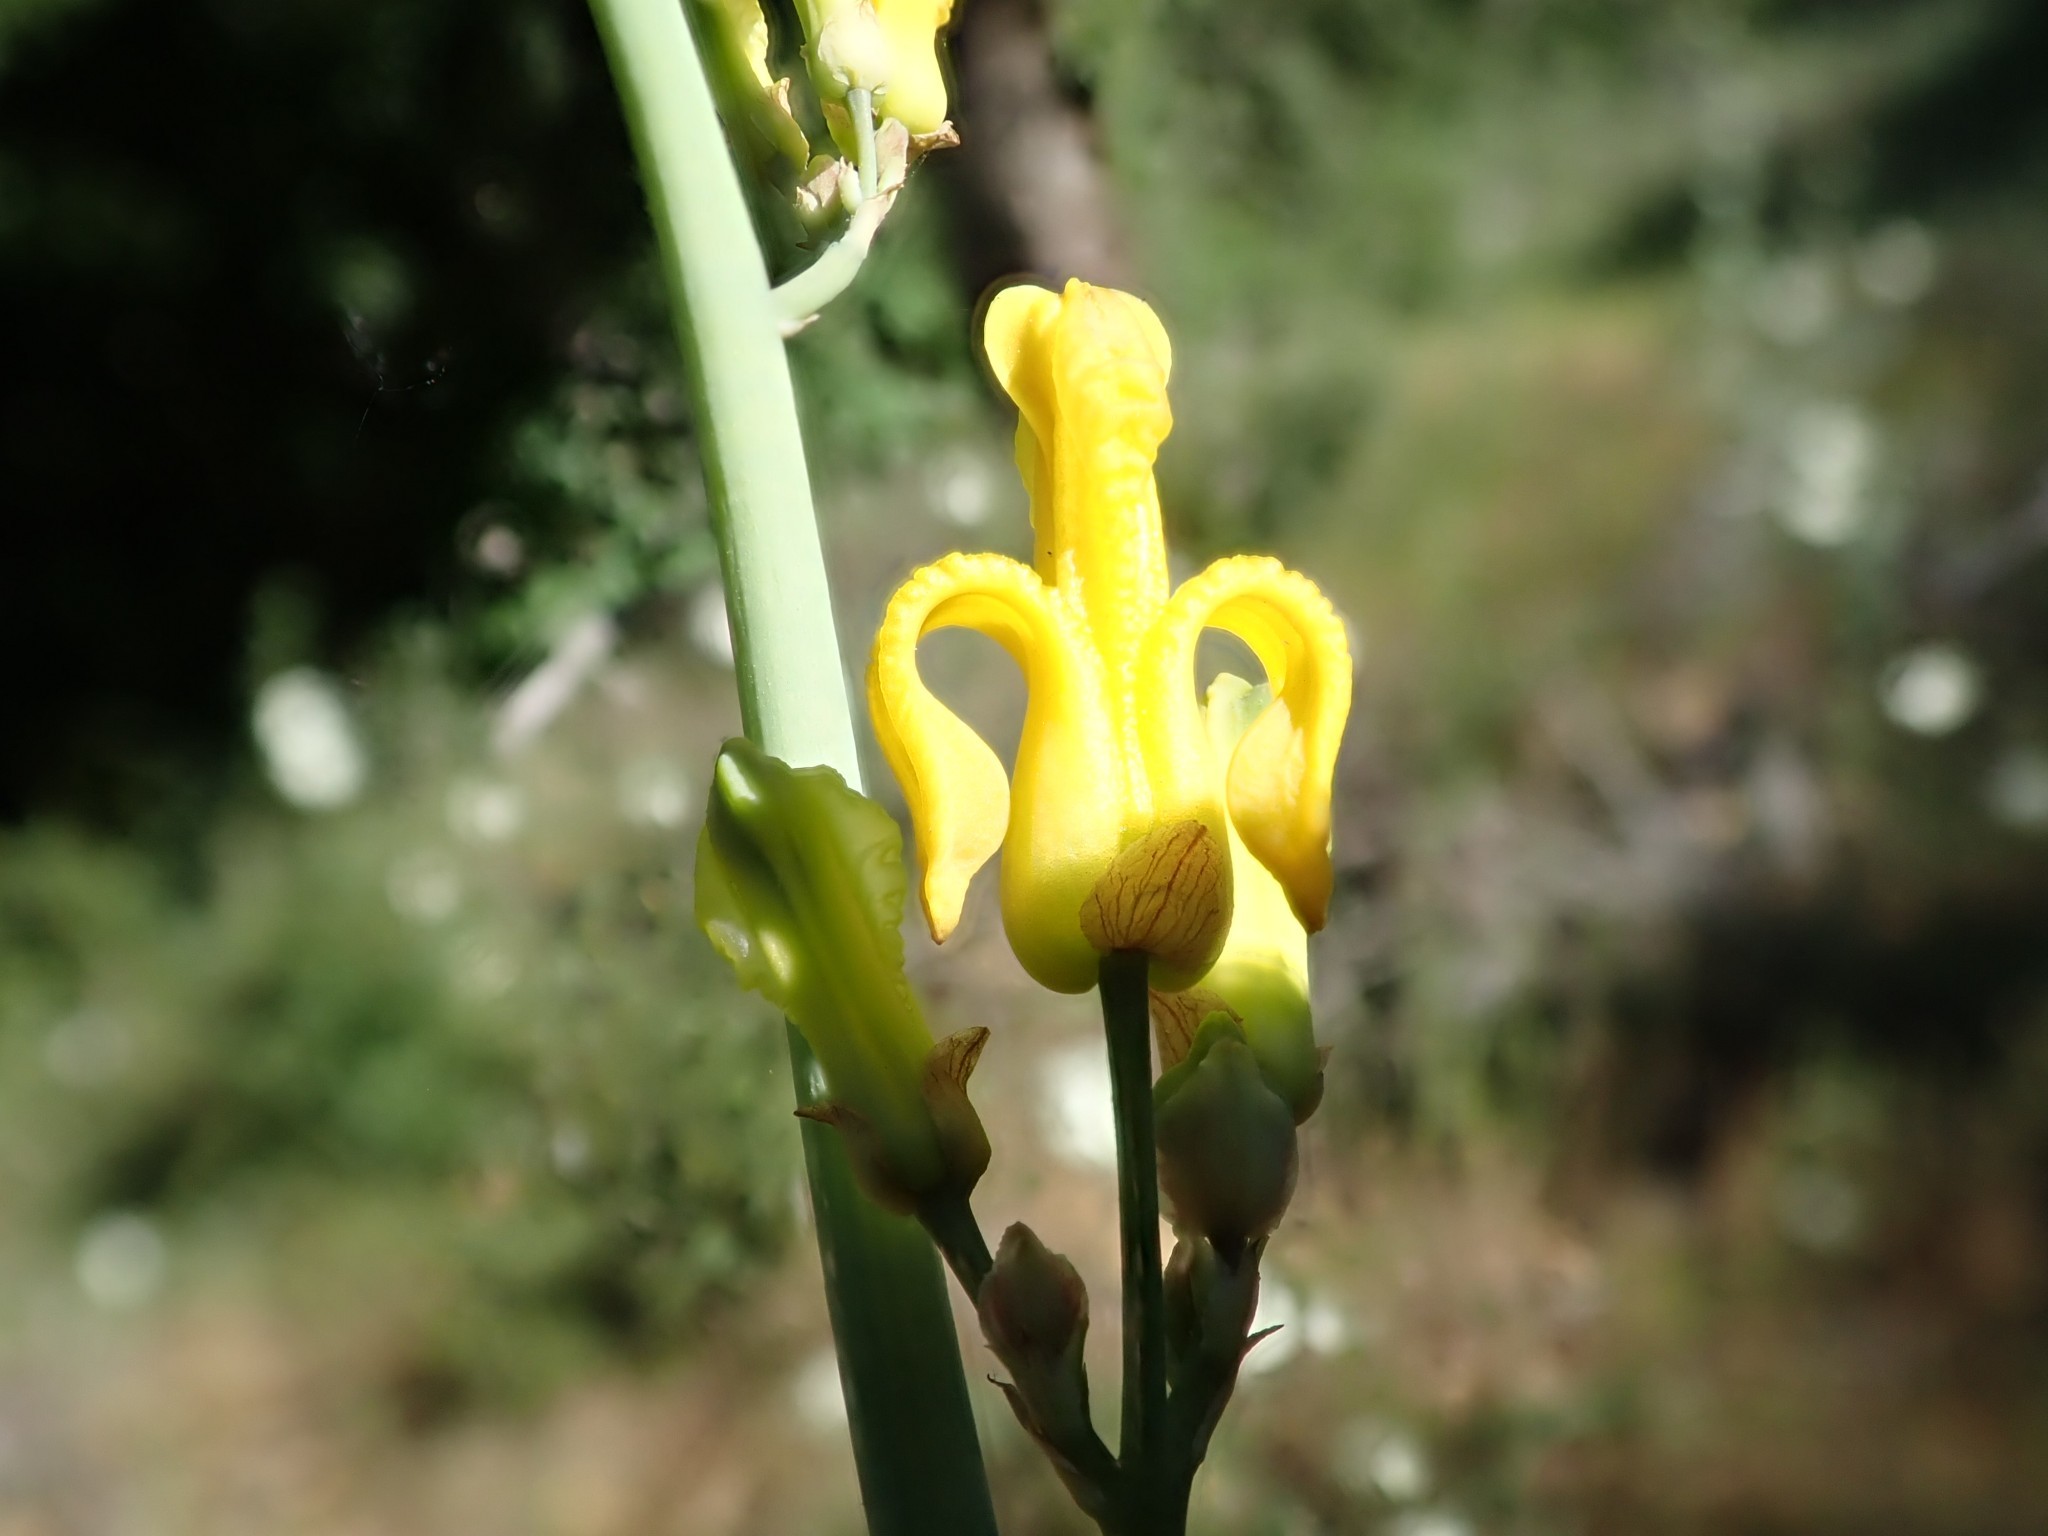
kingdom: Plantae
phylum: Tracheophyta
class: Magnoliopsida
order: Ranunculales
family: Papaveraceae
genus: Ehrendorferia
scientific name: Ehrendorferia chrysantha
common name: Golden eardrops
